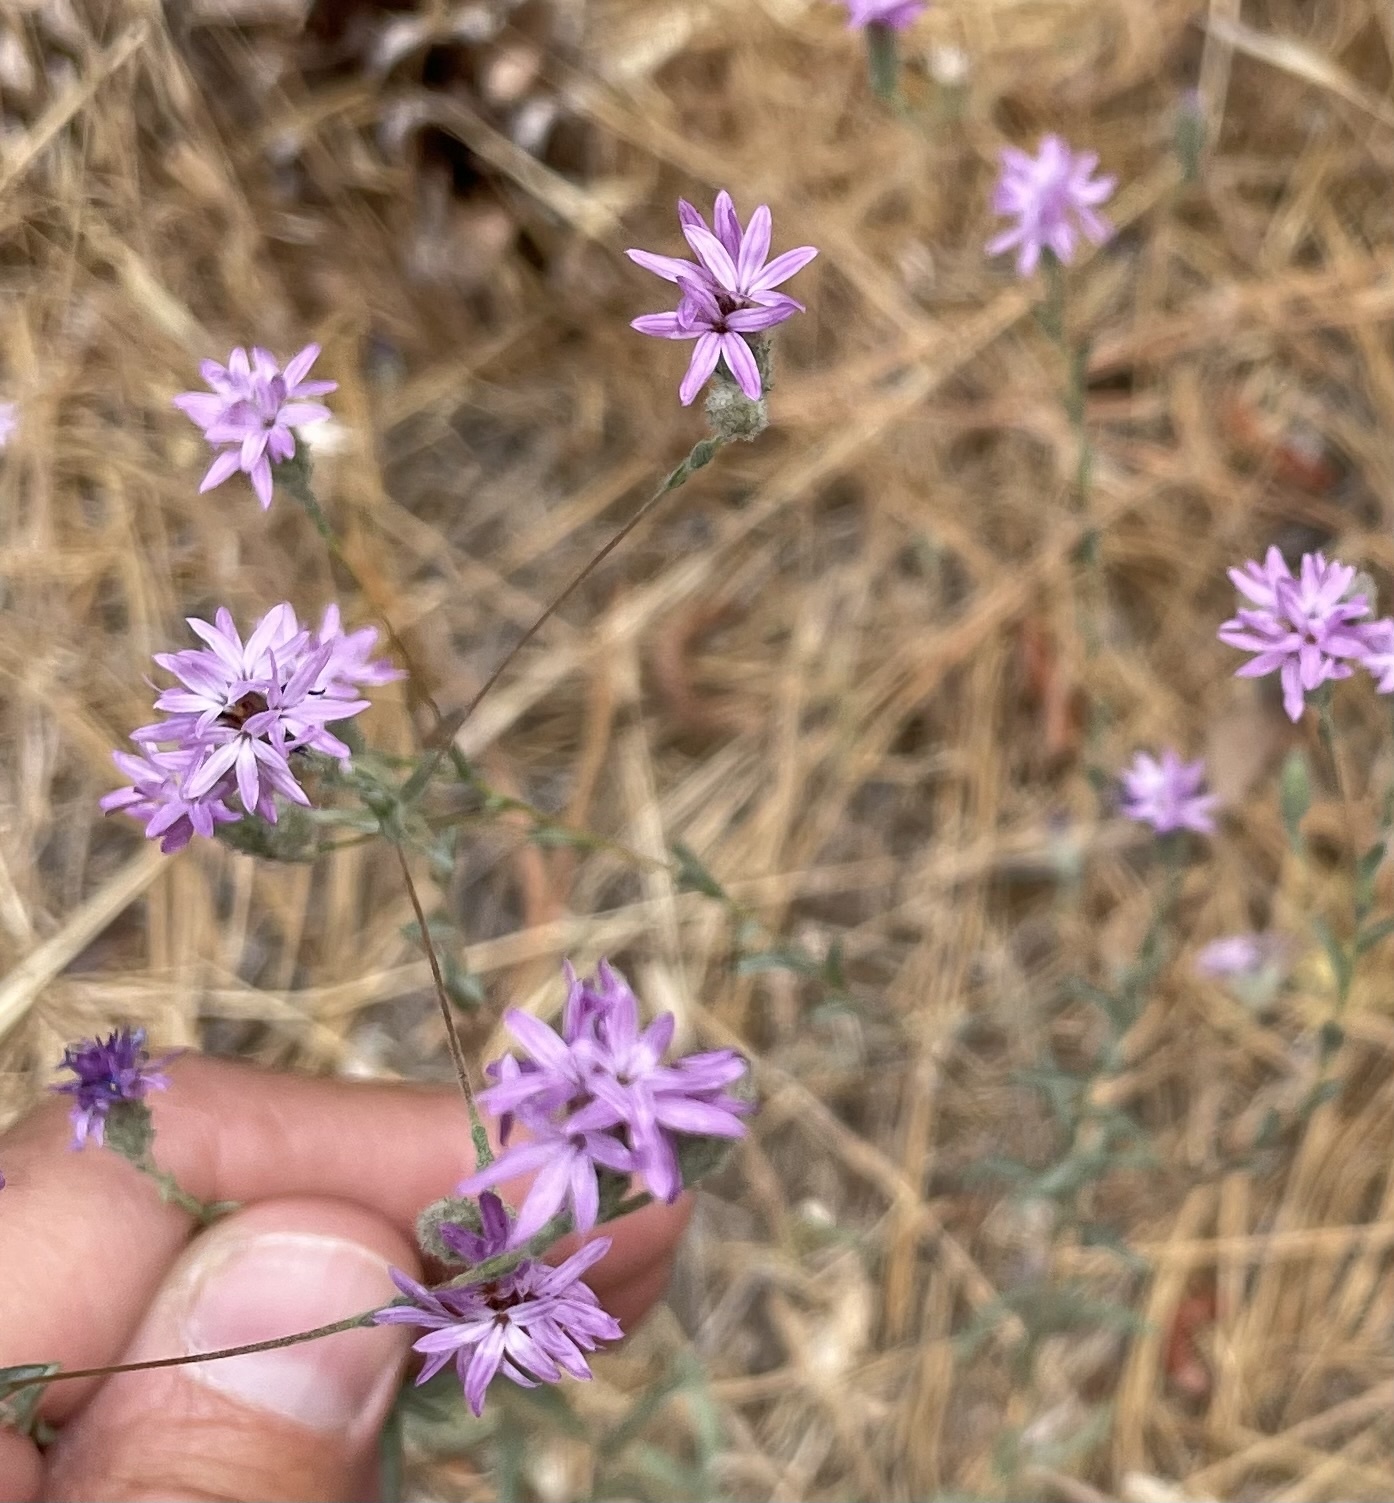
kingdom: Plantae
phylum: Tracheophyta
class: Magnoliopsida
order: Asterales
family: Asteraceae
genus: Lessingia
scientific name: Lessingia leptoclada
